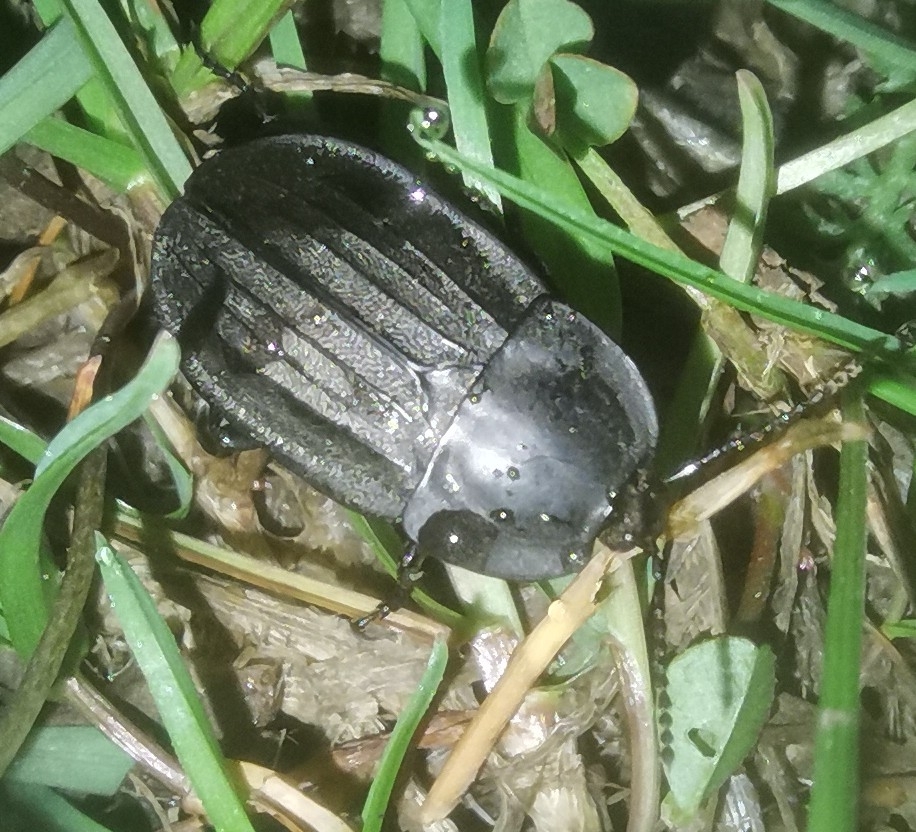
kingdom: Animalia
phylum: Arthropoda
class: Insecta
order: Coleoptera
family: Staphylinidae
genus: Silpha
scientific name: Silpha carinata
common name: Silphid beetle
